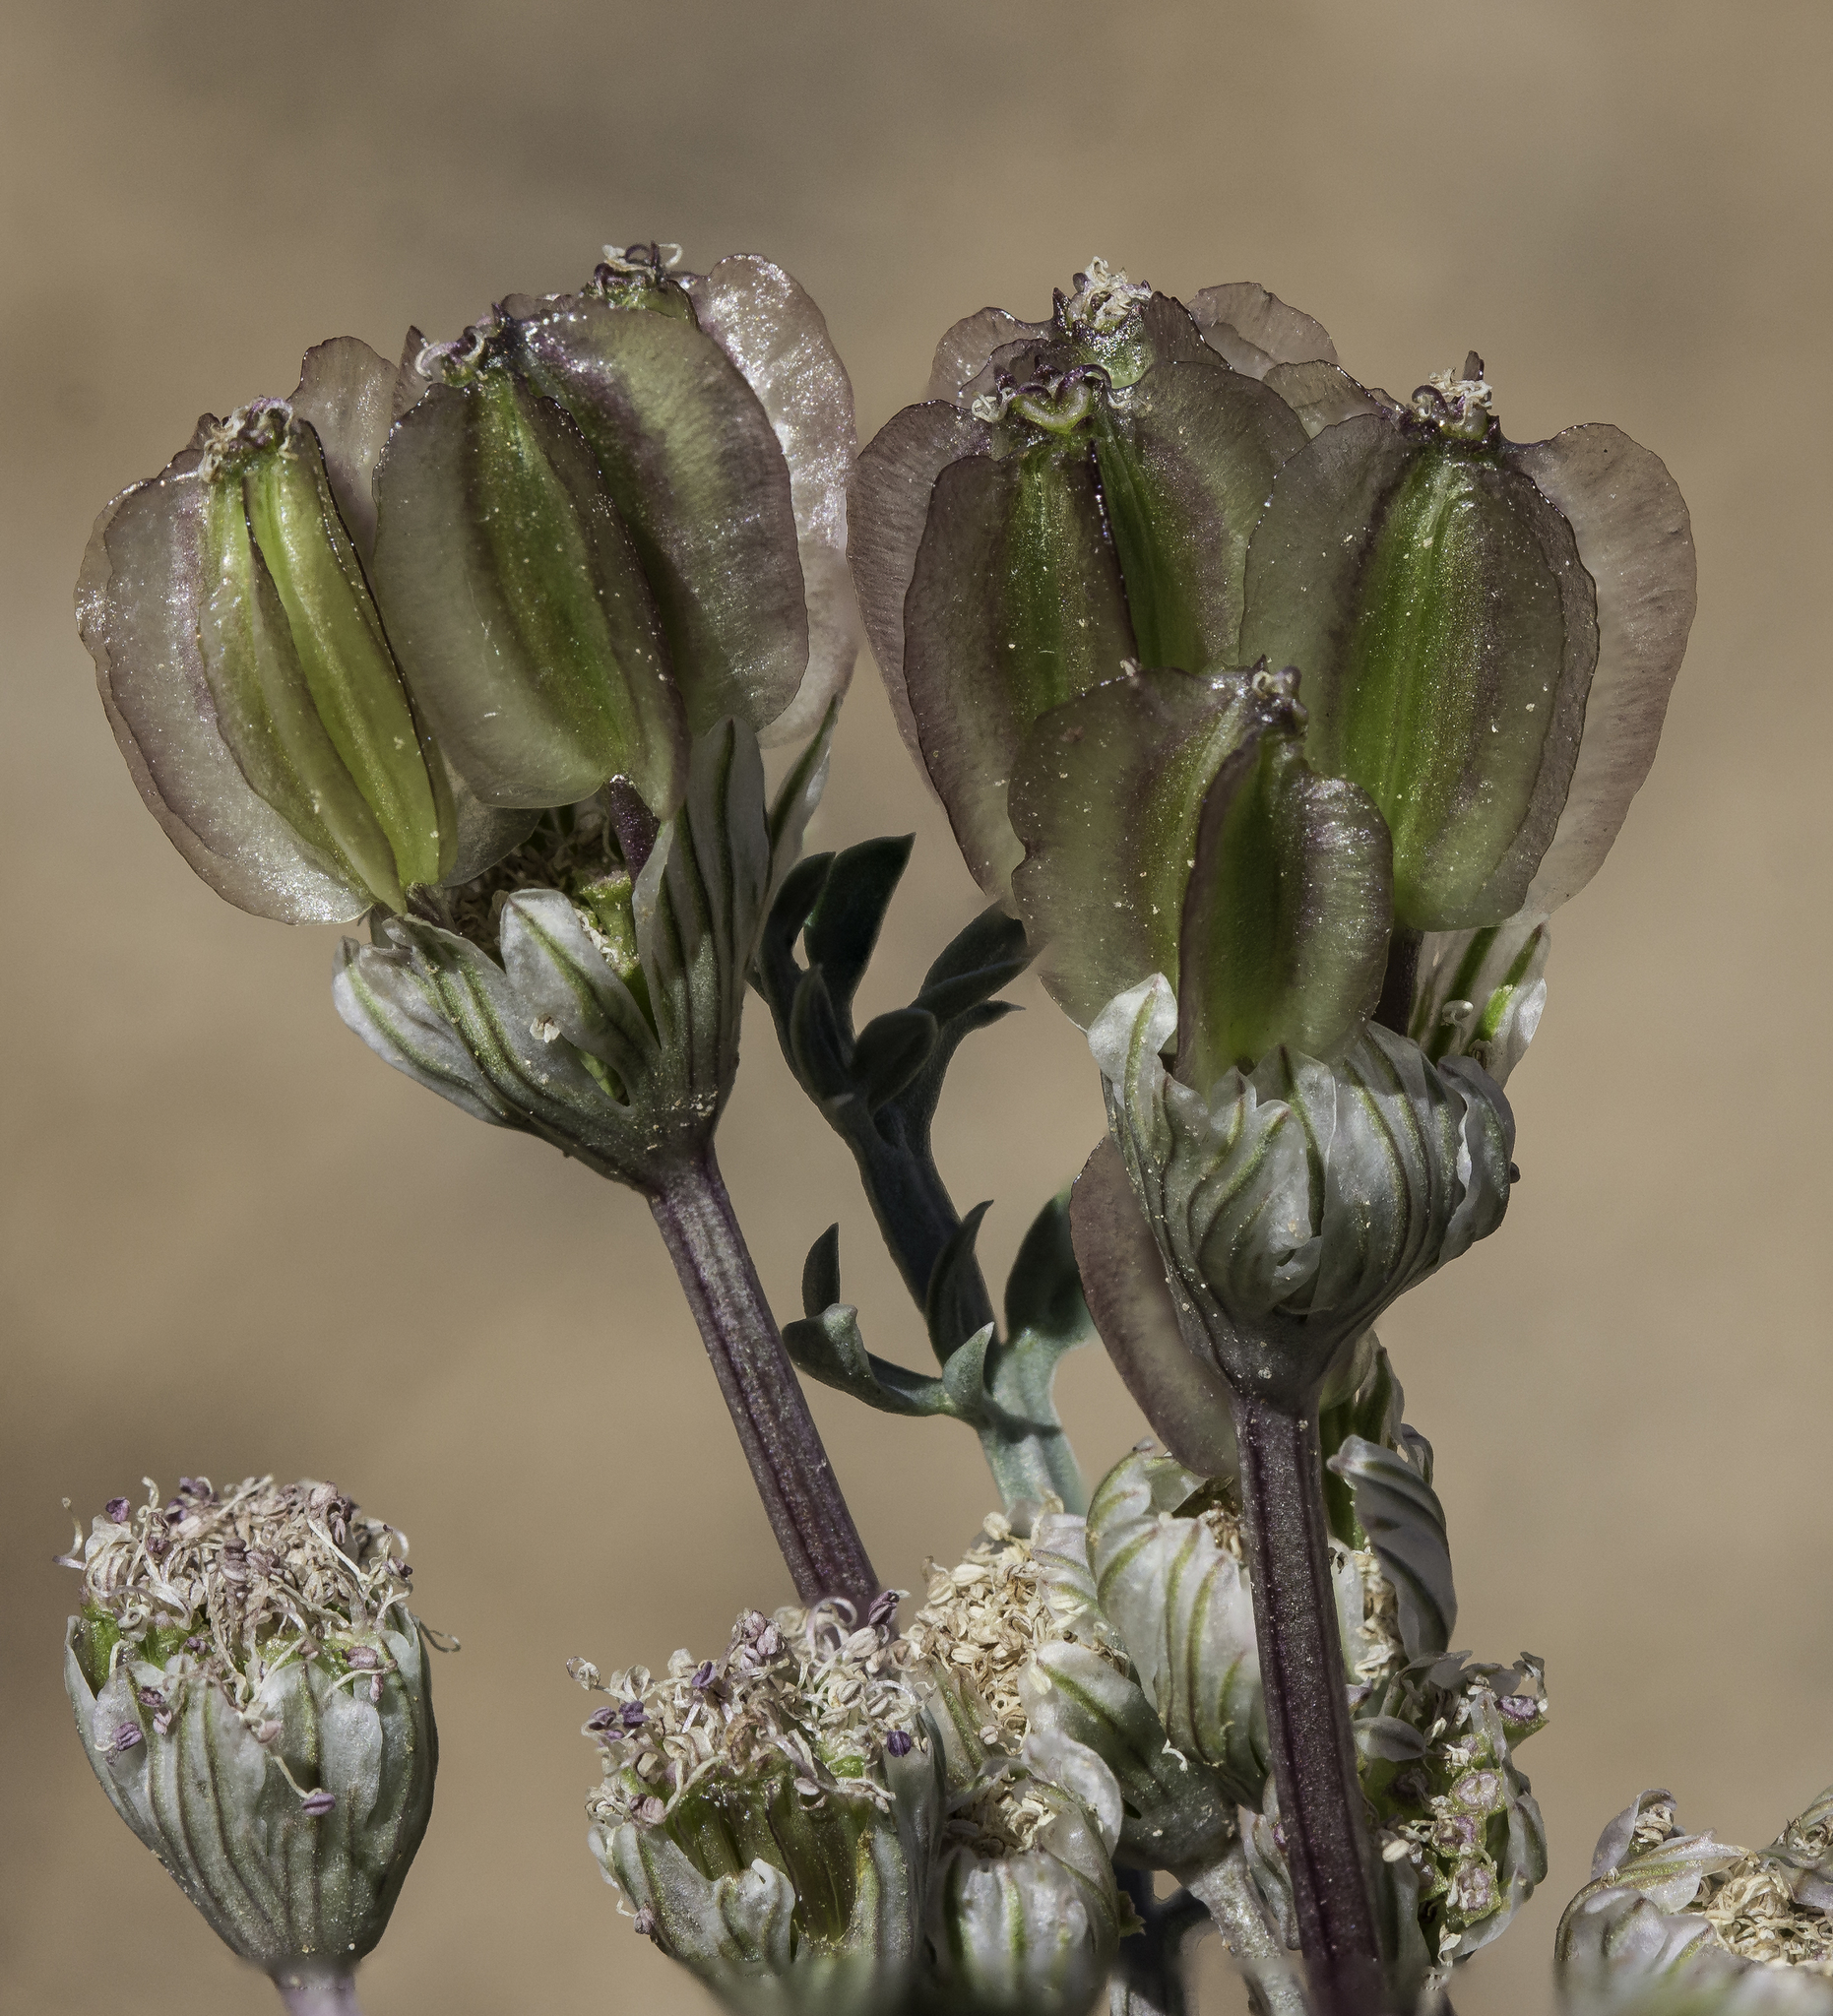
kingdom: Plantae
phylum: Tracheophyta
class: Magnoliopsida
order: Apiales
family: Apiaceae
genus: Vesper
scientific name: Vesper constancei
